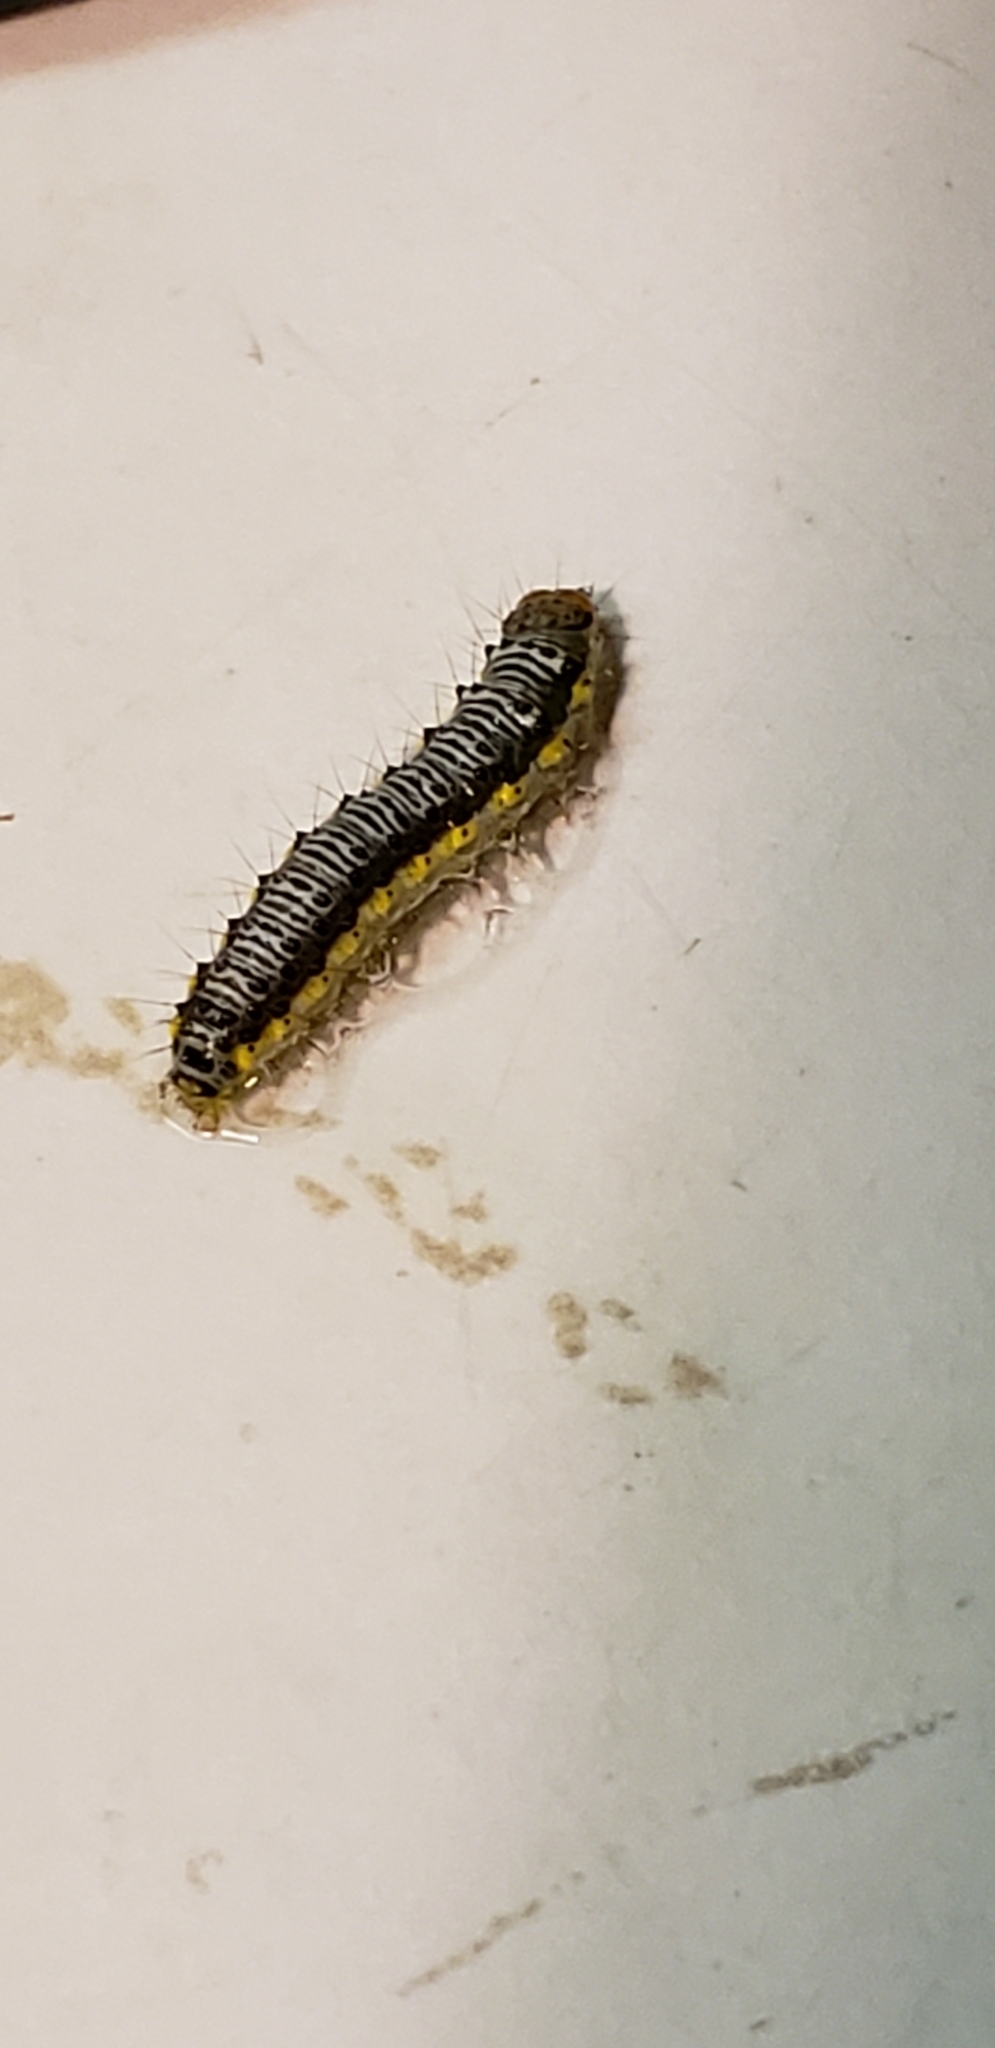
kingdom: Animalia
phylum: Arthropoda
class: Insecta
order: Lepidoptera
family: Crambidae
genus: Evergestis
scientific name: Evergestis rimosalis
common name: Cross-striped cabbageworm moth
